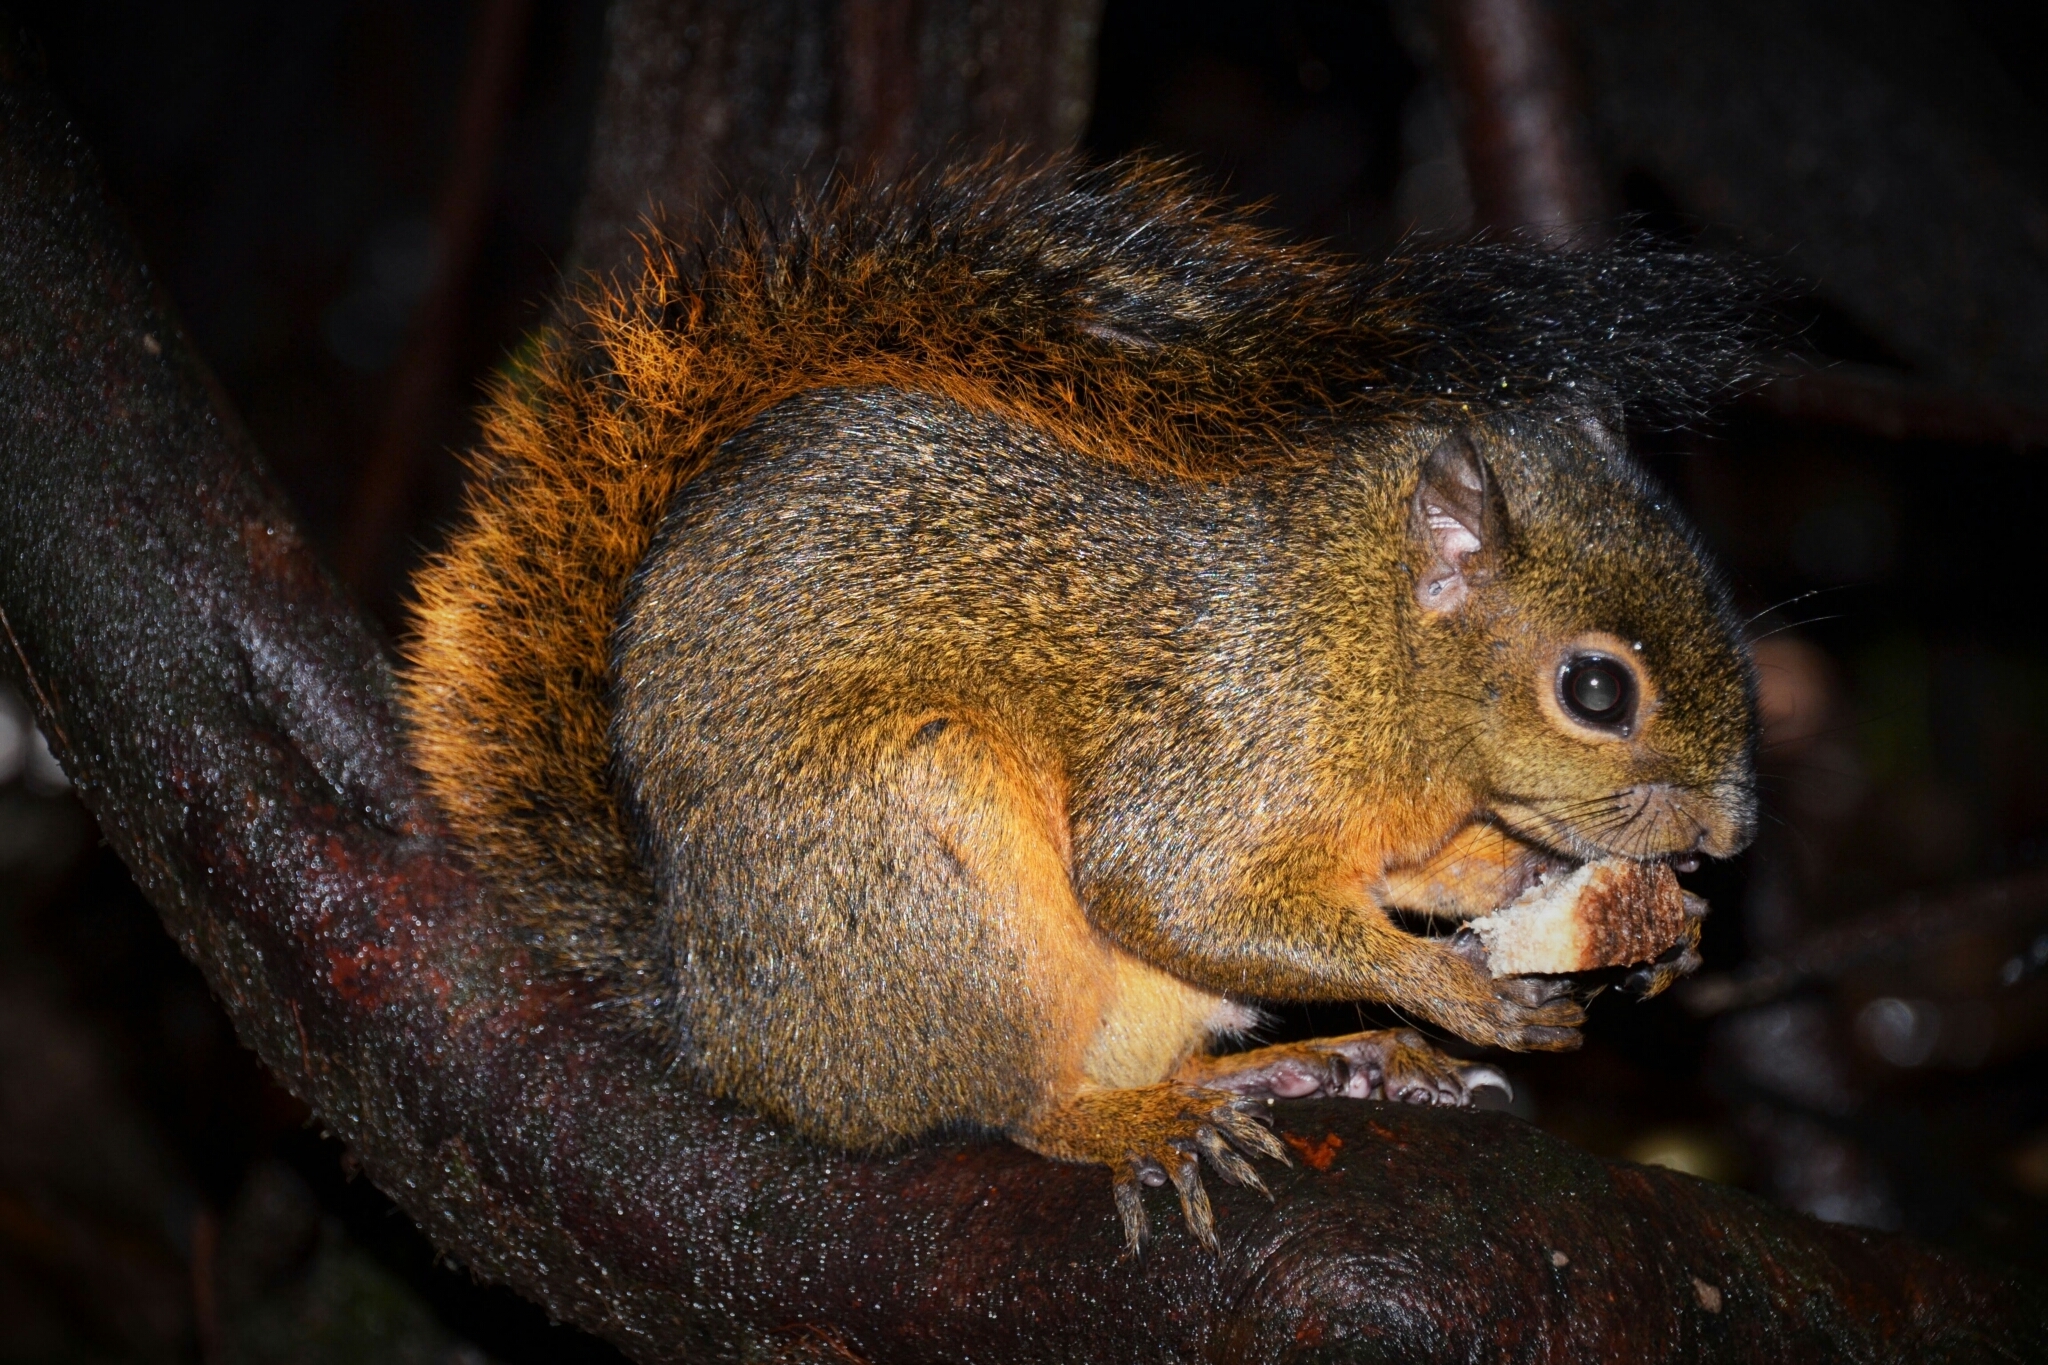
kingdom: Animalia
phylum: Chordata
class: Mammalia
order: Rodentia
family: Sciuridae
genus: Sciurus
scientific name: Sciurus granatensis
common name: Red-tailed squirrel
